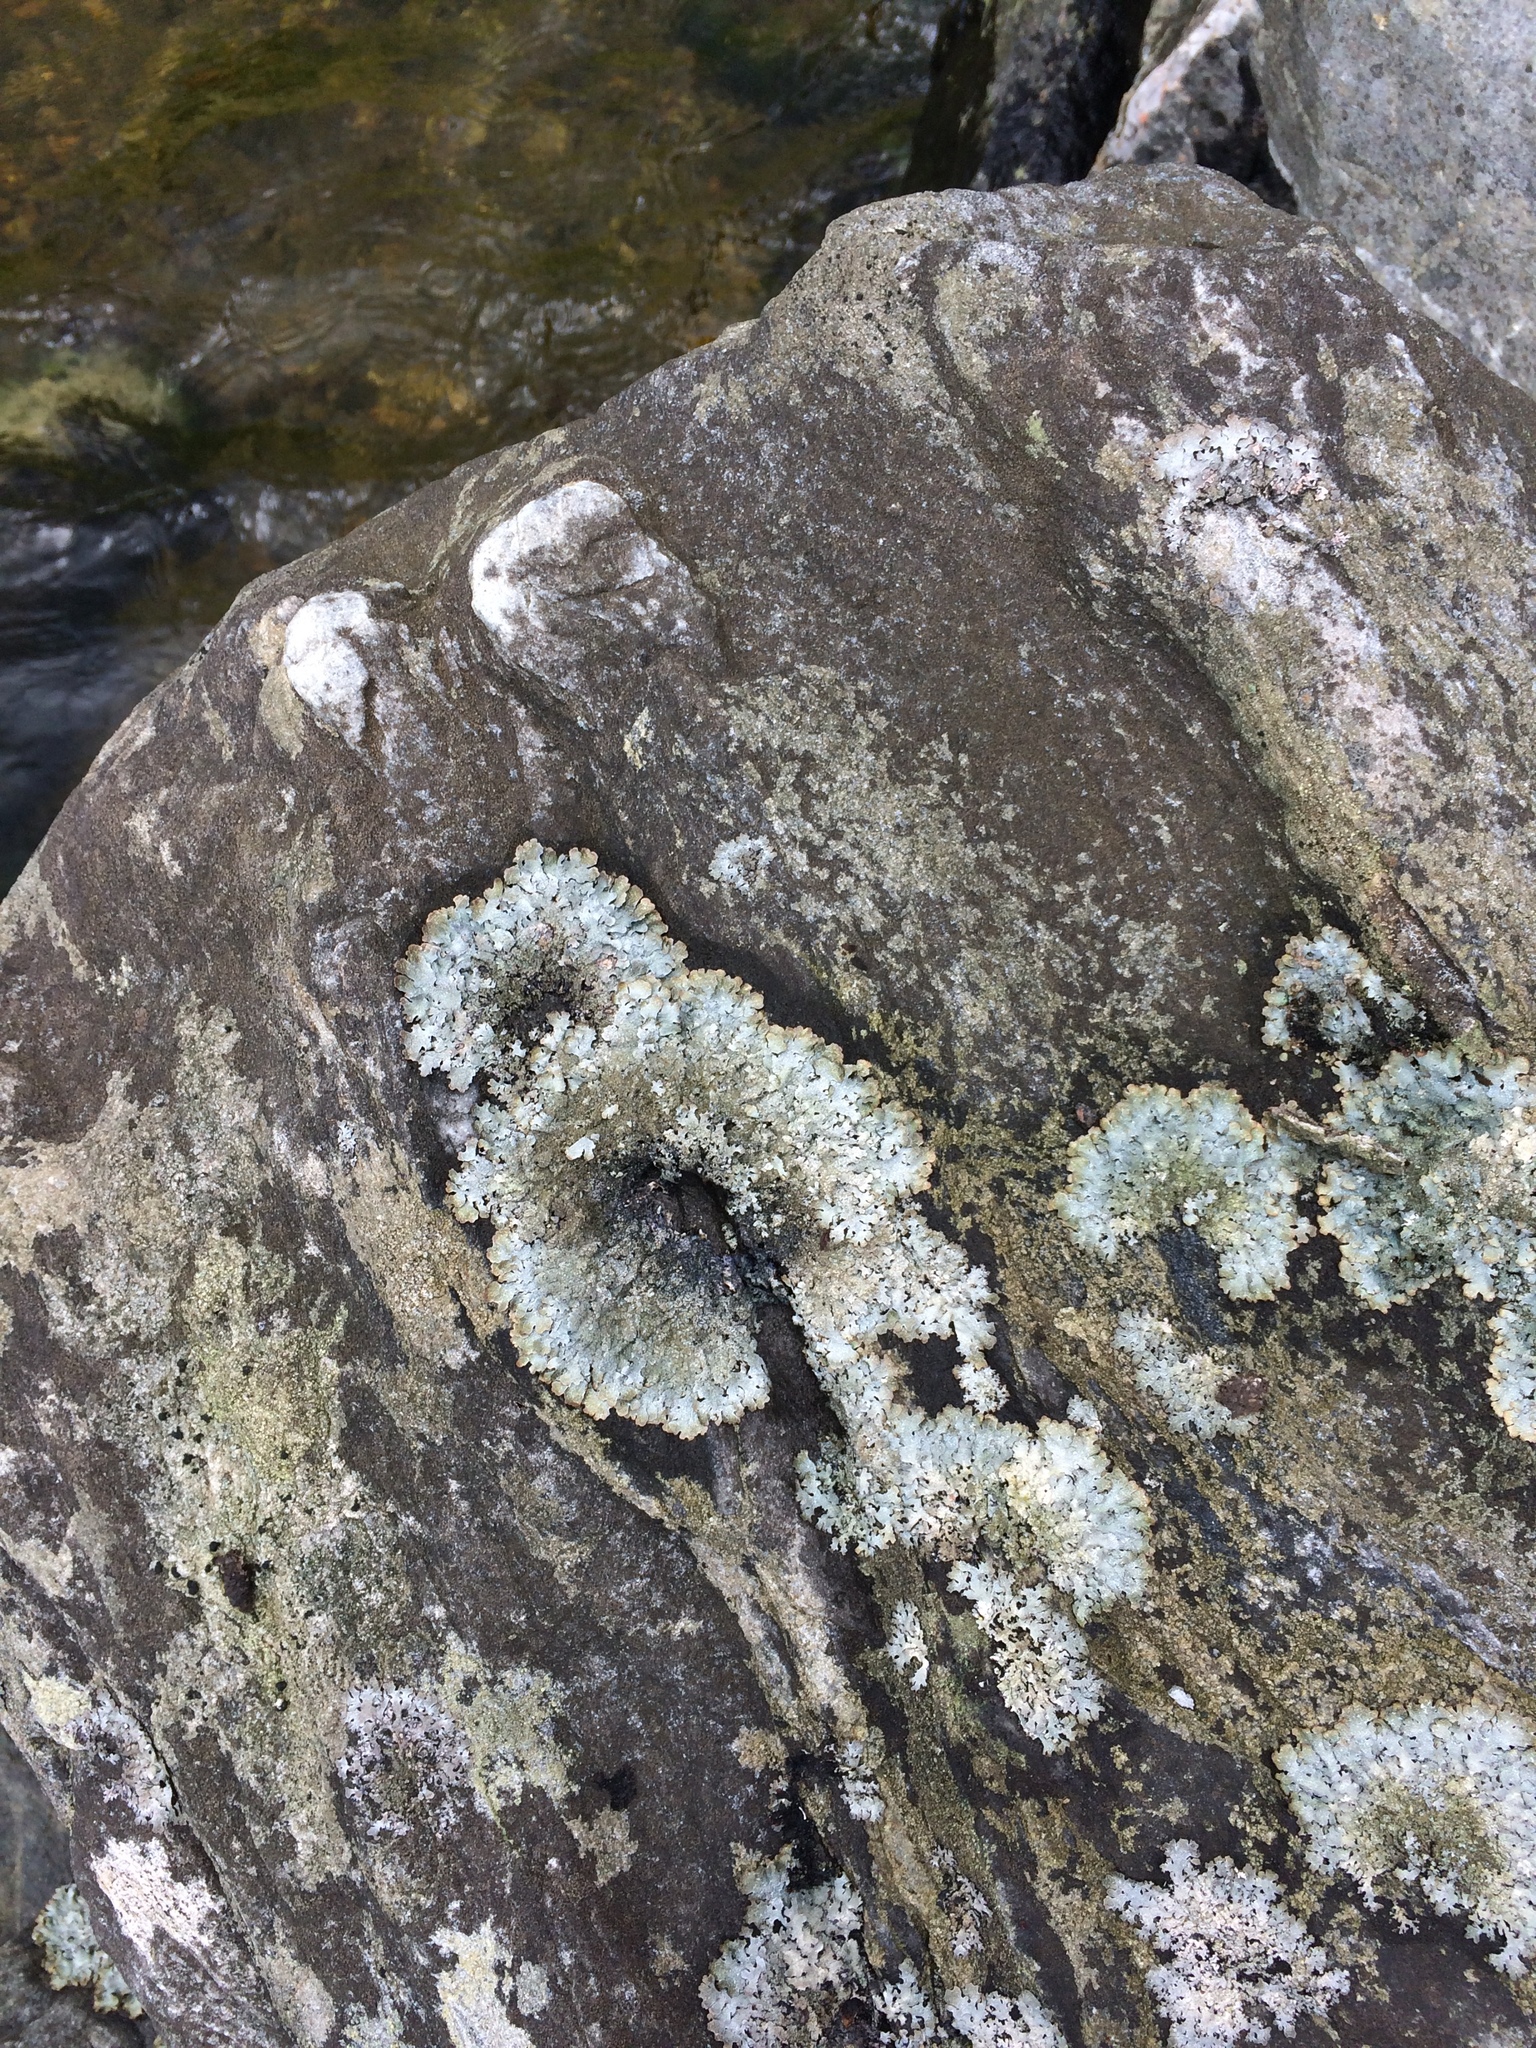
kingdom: Fungi
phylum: Ascomycota
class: Lecanoromycetes
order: Lecanorales
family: Parmeliaceae
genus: Parmelia
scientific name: Parmelia saxatilis
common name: Salted shield lichen
